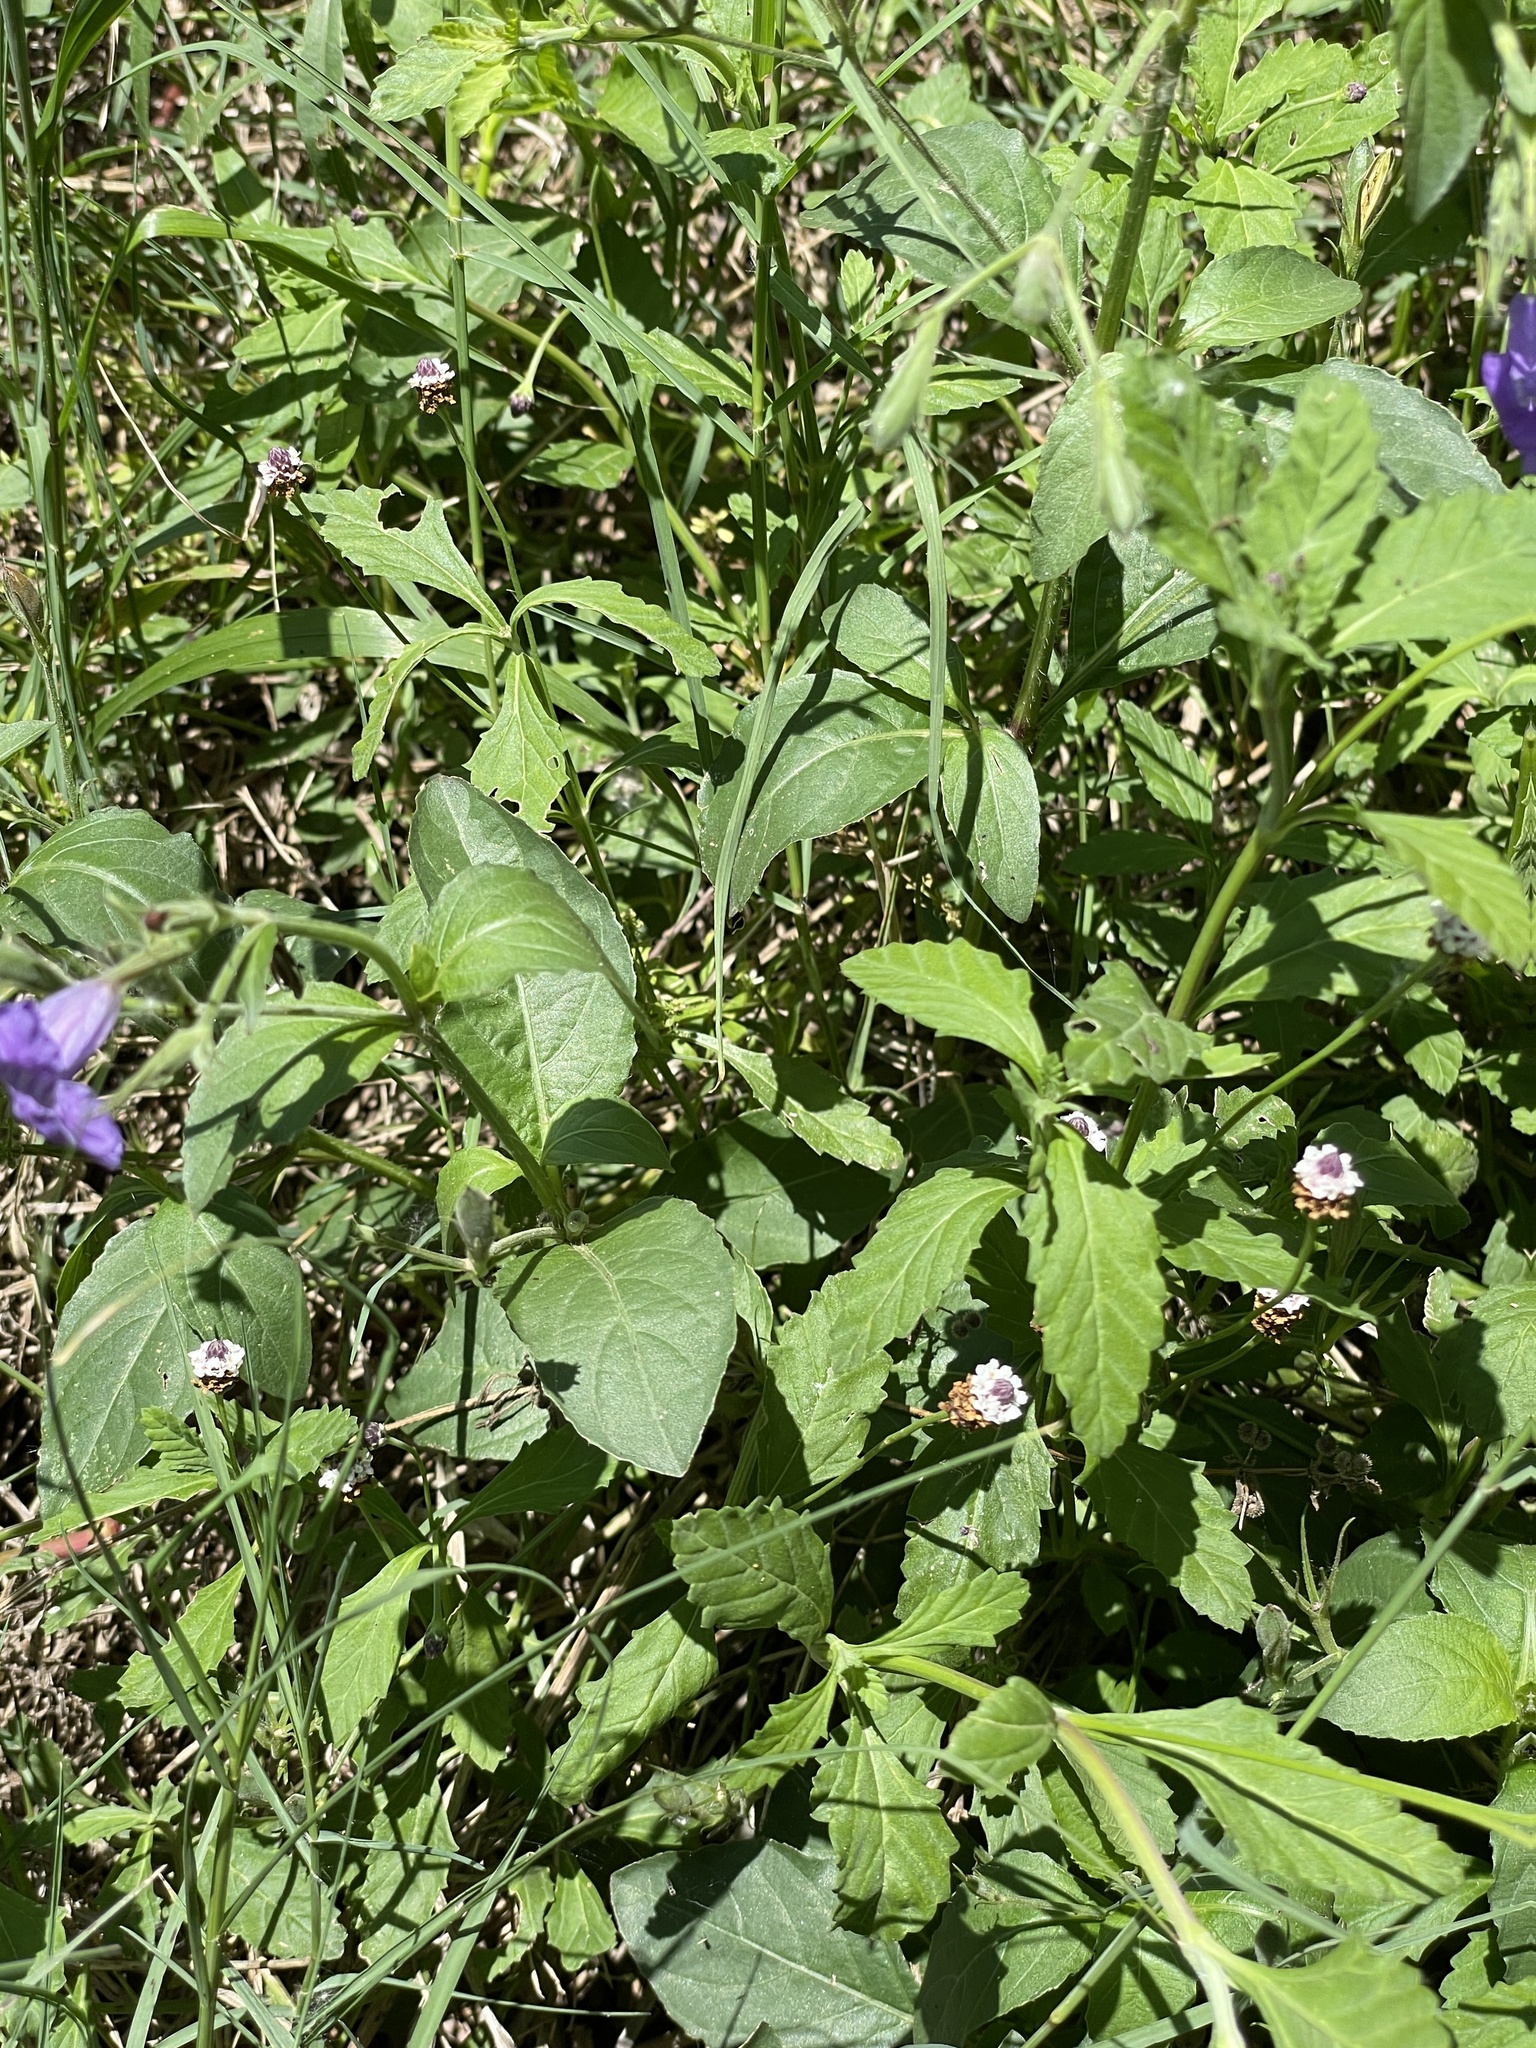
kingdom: Plantae
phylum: Tracheophyta
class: Magnoliopsida
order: Lamiales
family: Acanthaceae
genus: Ruellia
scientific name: Ruellia ciliatiflora
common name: Hairyflower wild petunia
